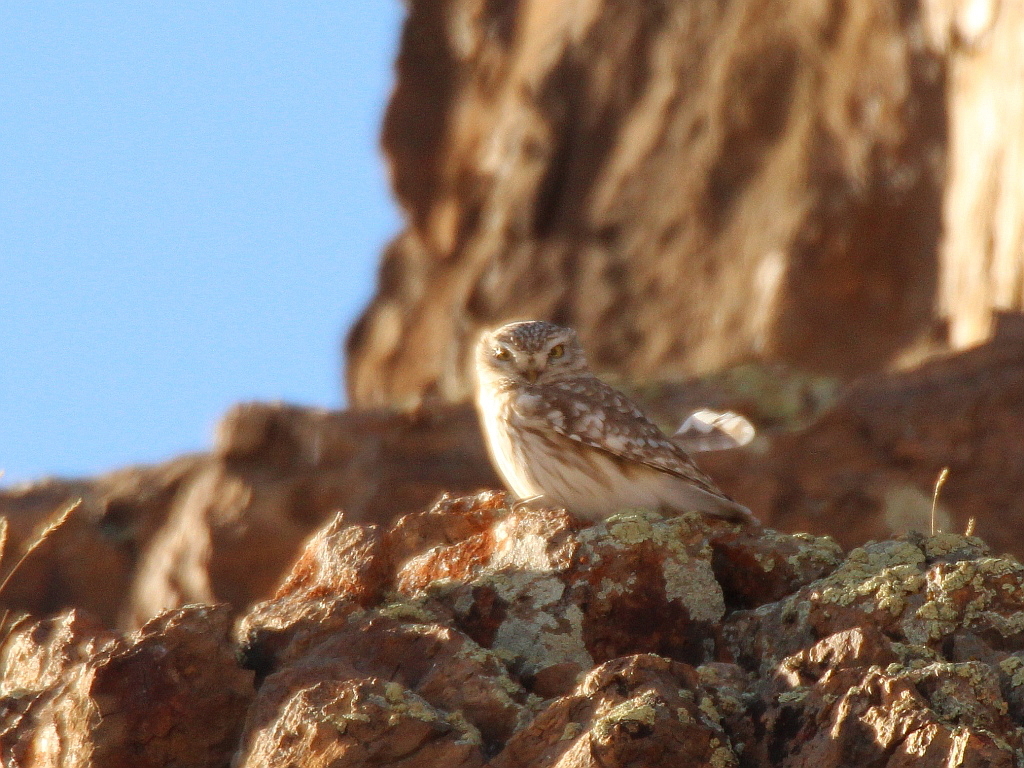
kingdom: Animalia
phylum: Chordata
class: Aves
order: Strigiformes
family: Strigidae
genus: Athene
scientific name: Athene noctua
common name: Little owl
